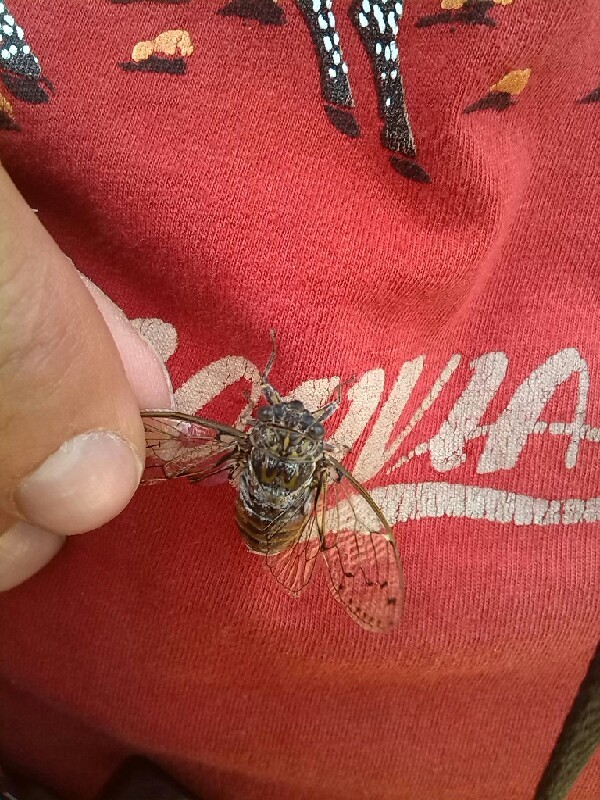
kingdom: Animalia
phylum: Arthropoda
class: Insecta
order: Hemiptera
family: Cicadidae
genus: Cicada
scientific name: Cicada orni
